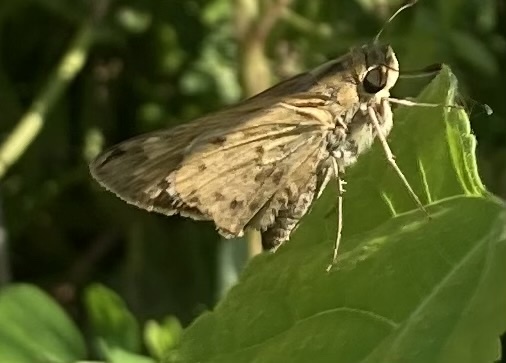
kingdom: Animalia
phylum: Arthropoda
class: Insecta
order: Lepidoptera
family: Hesperiidae
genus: Hylephila
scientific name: Hylephila phyleus
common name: Fiery skipper
